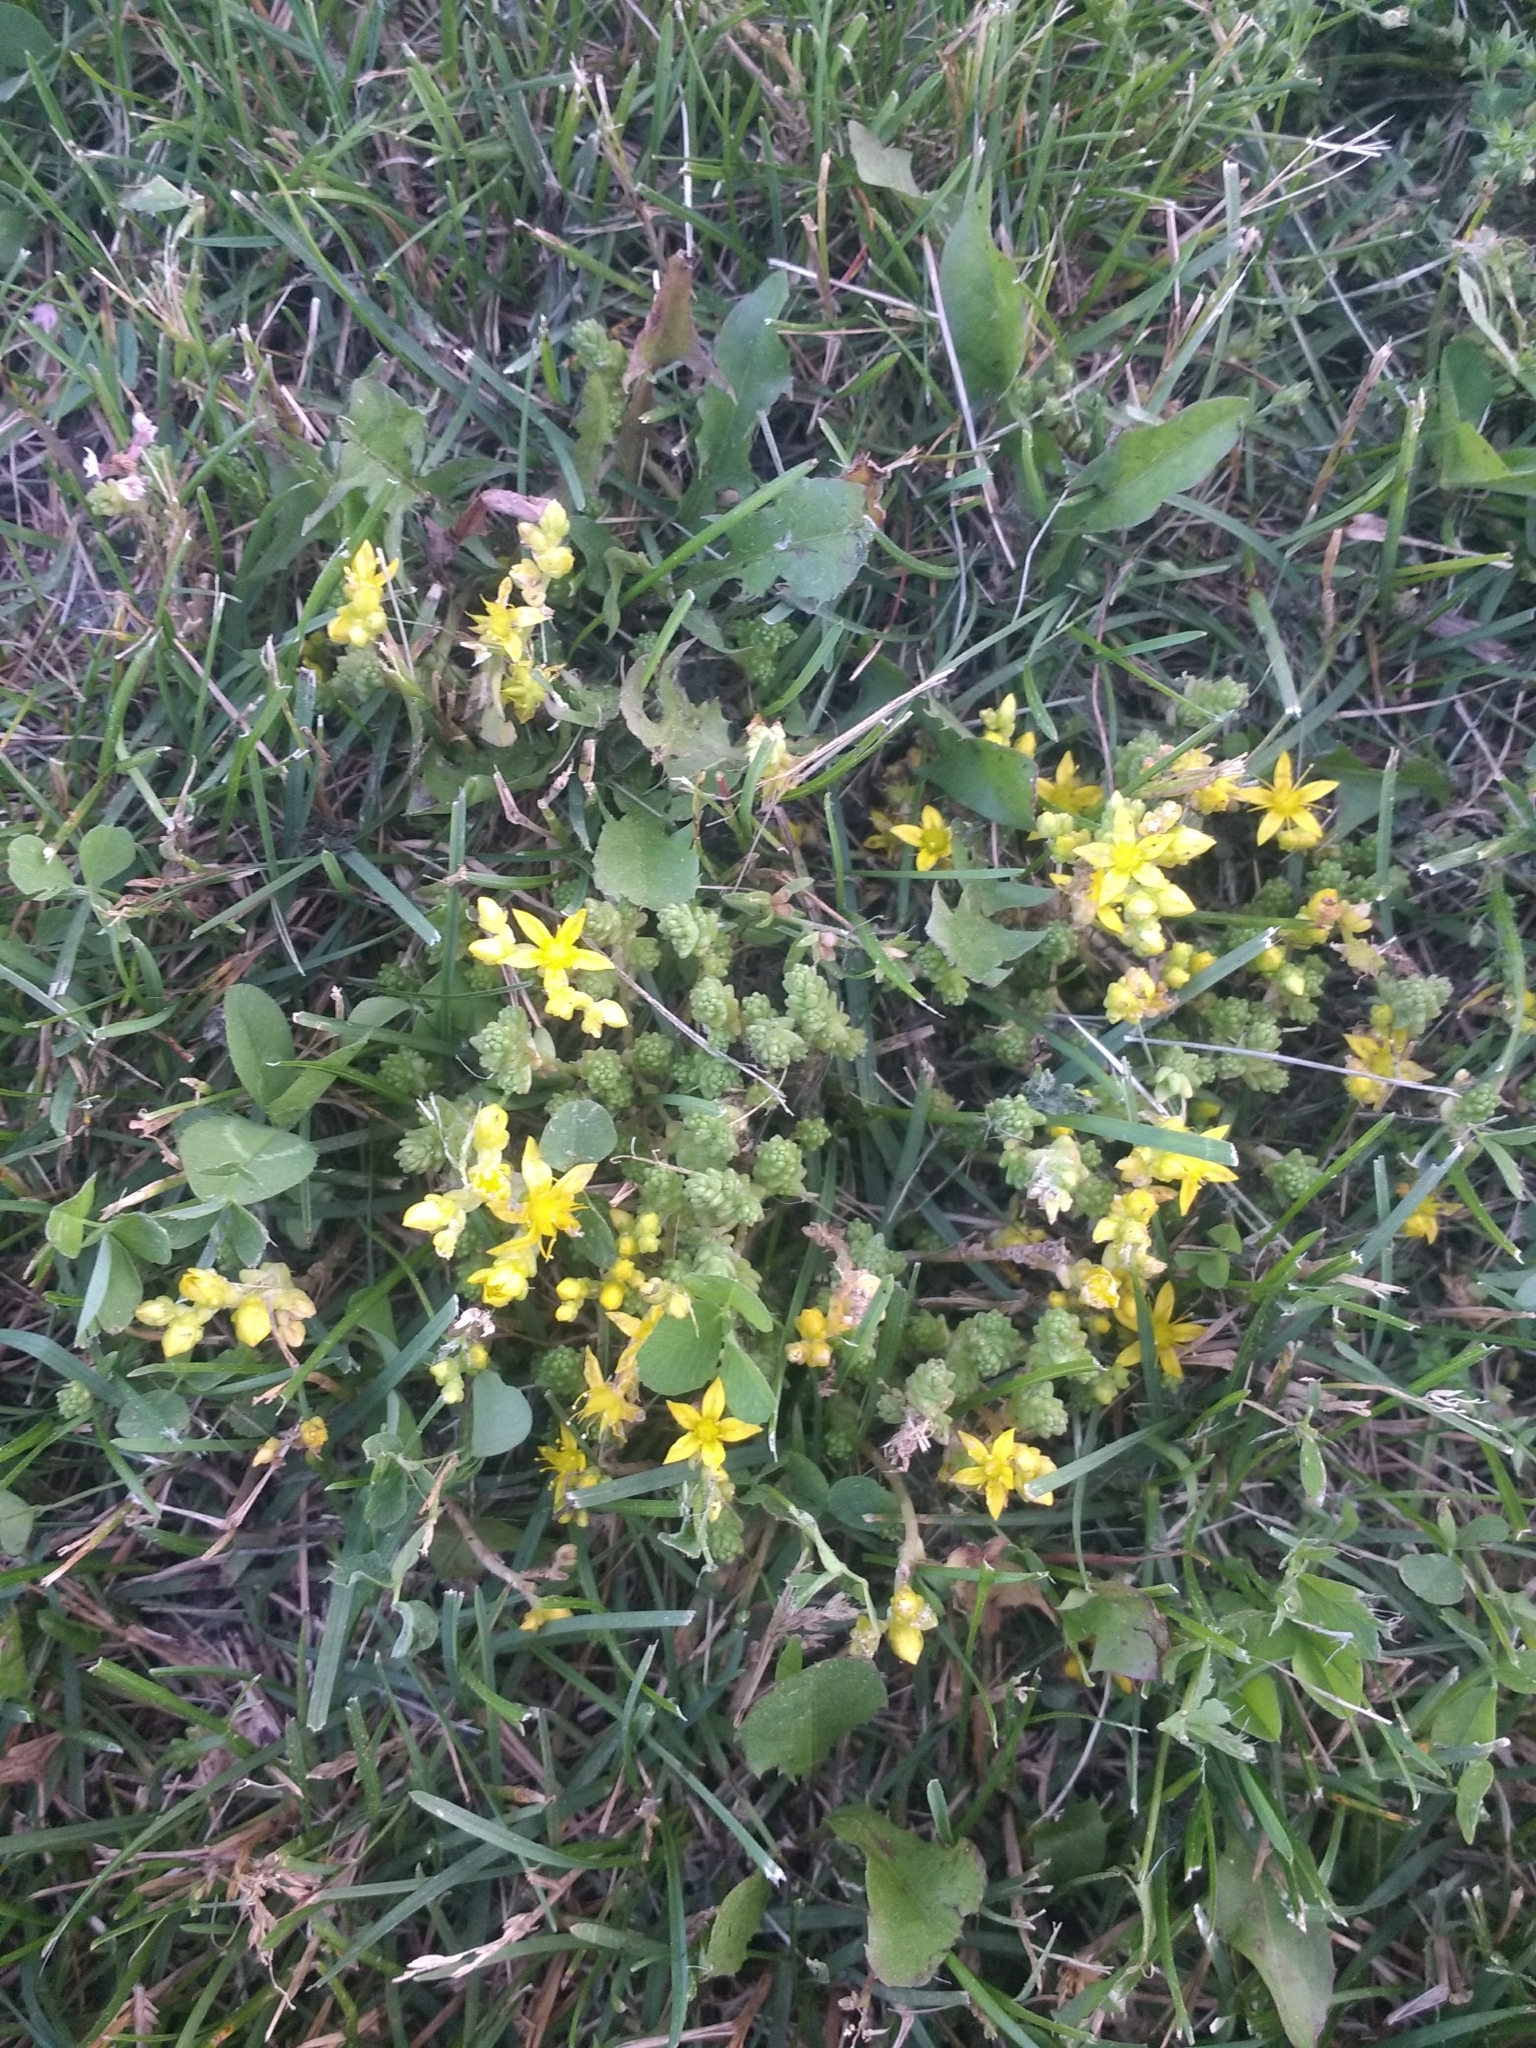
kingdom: Plantae
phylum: Tracheophyta
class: Magnoliopsida
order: Saxifragales
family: Crassulaceae
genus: Sedum
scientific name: Sedum acre
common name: Biting stonecrop
